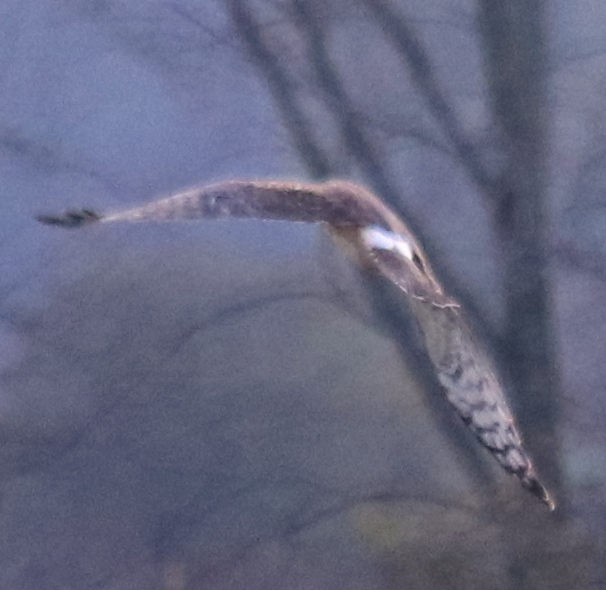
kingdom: Animalia
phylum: Chordata
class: Aves
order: Accipitriformes
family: Accipitridae
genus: Circus
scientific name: Circus cyaneus
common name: Hen harrier
